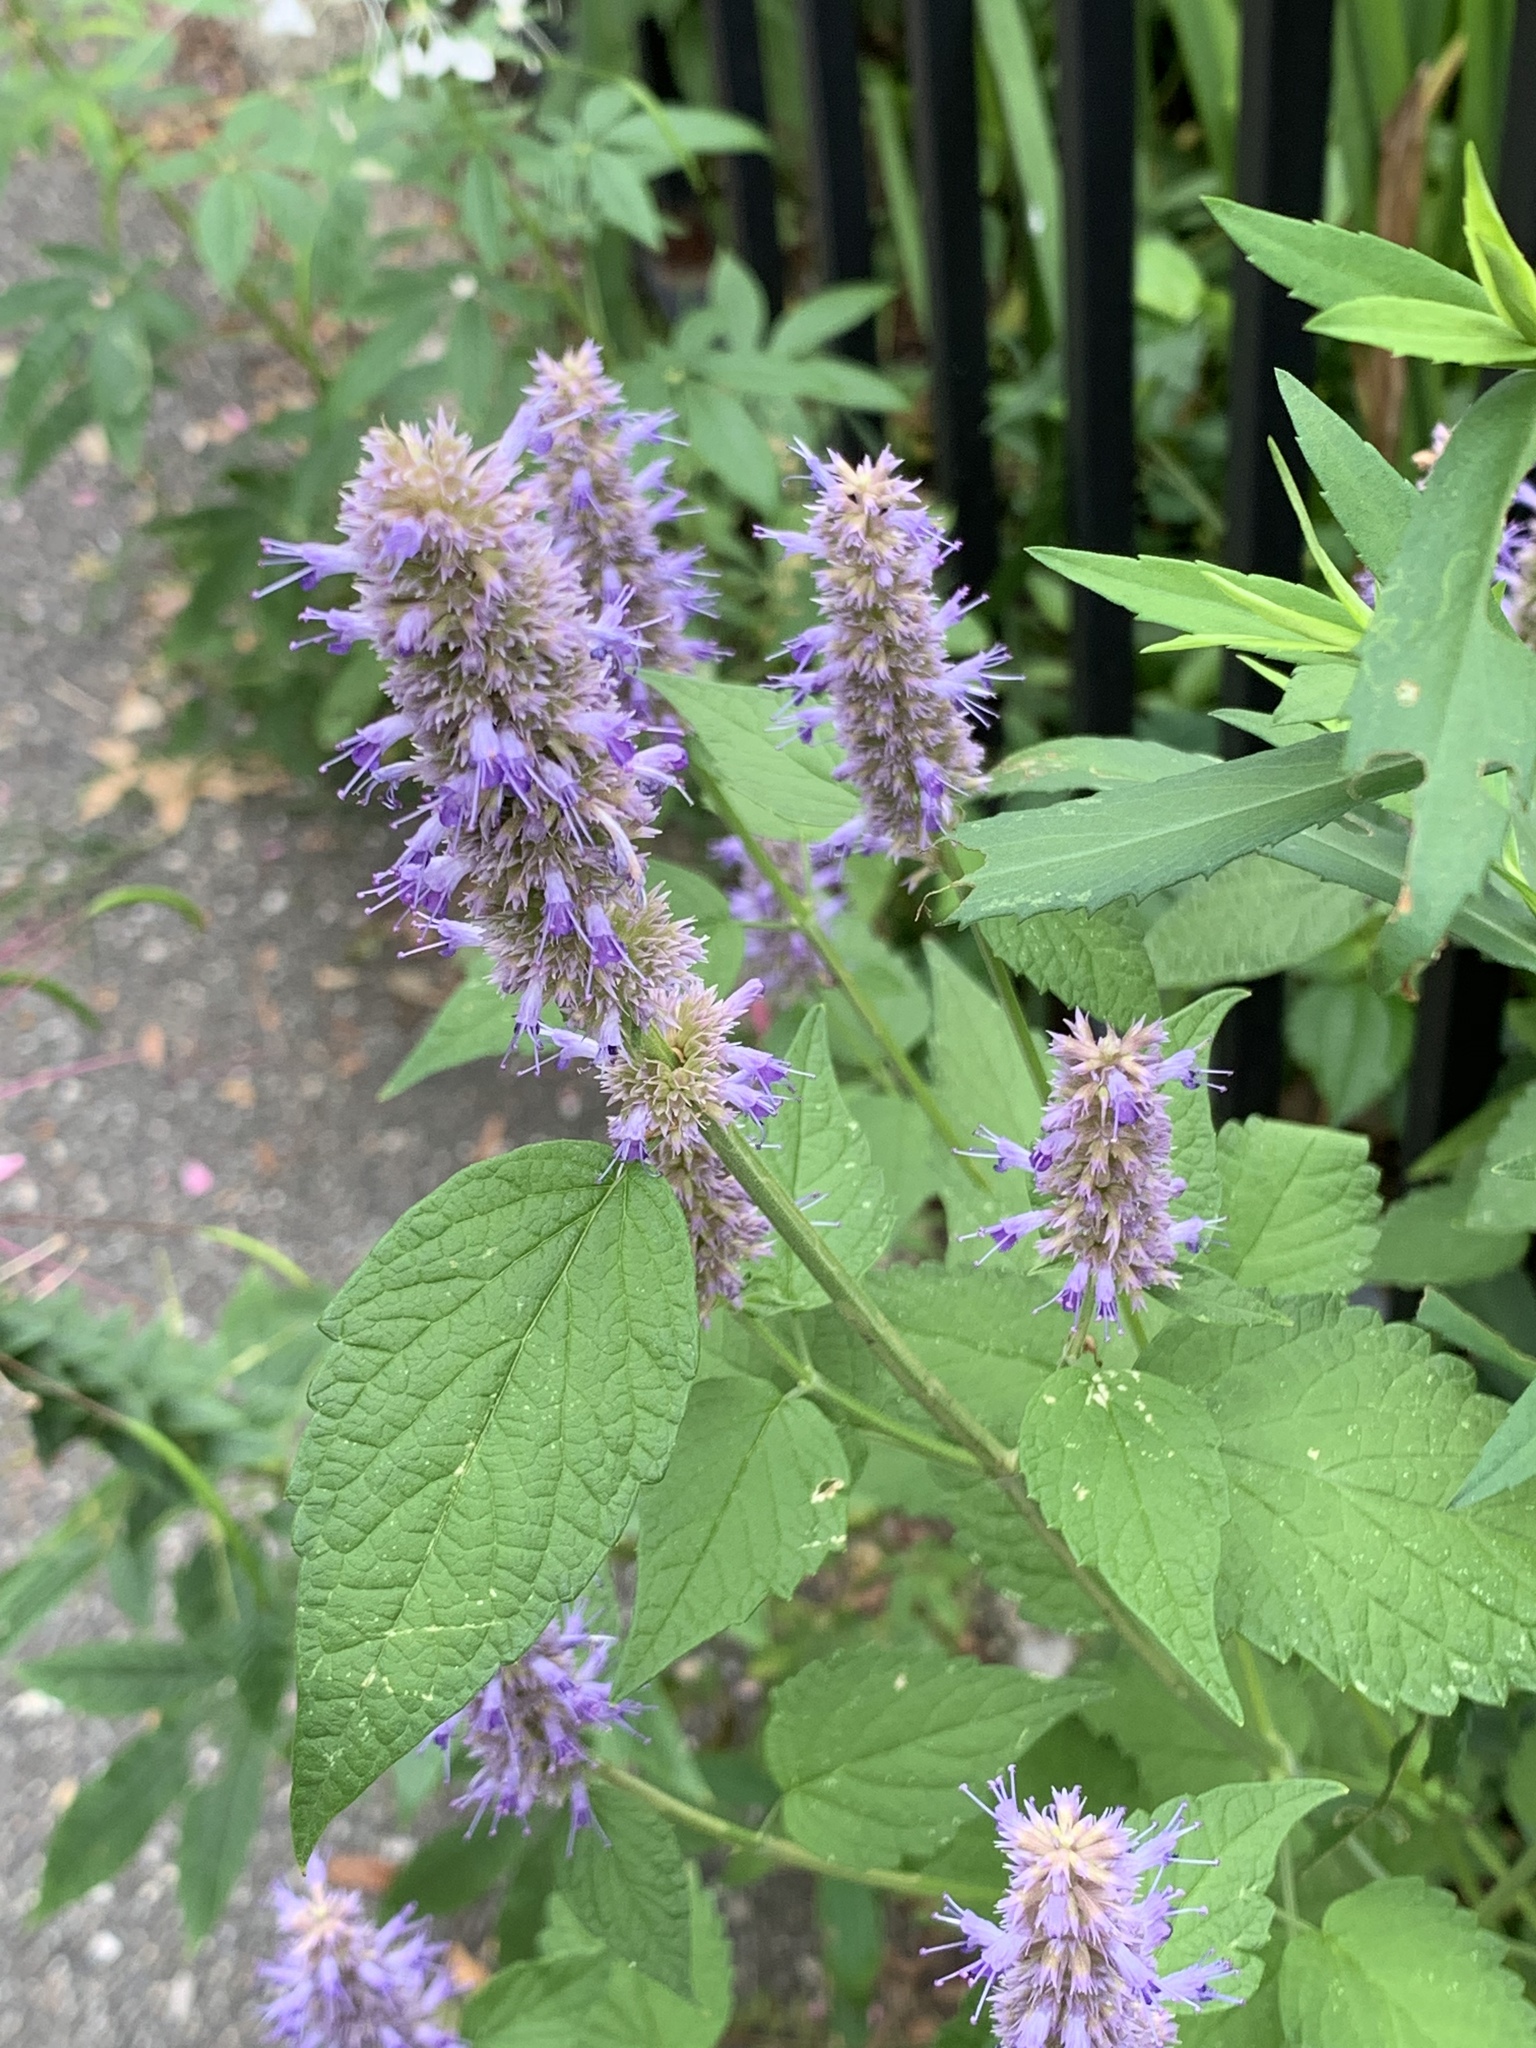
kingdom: Plantae
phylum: Tracheophyta
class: Magnoliopsida
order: Lamiales
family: Lamiaceae
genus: Agastache
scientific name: Agastache foeniculum
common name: Anise hyssop
